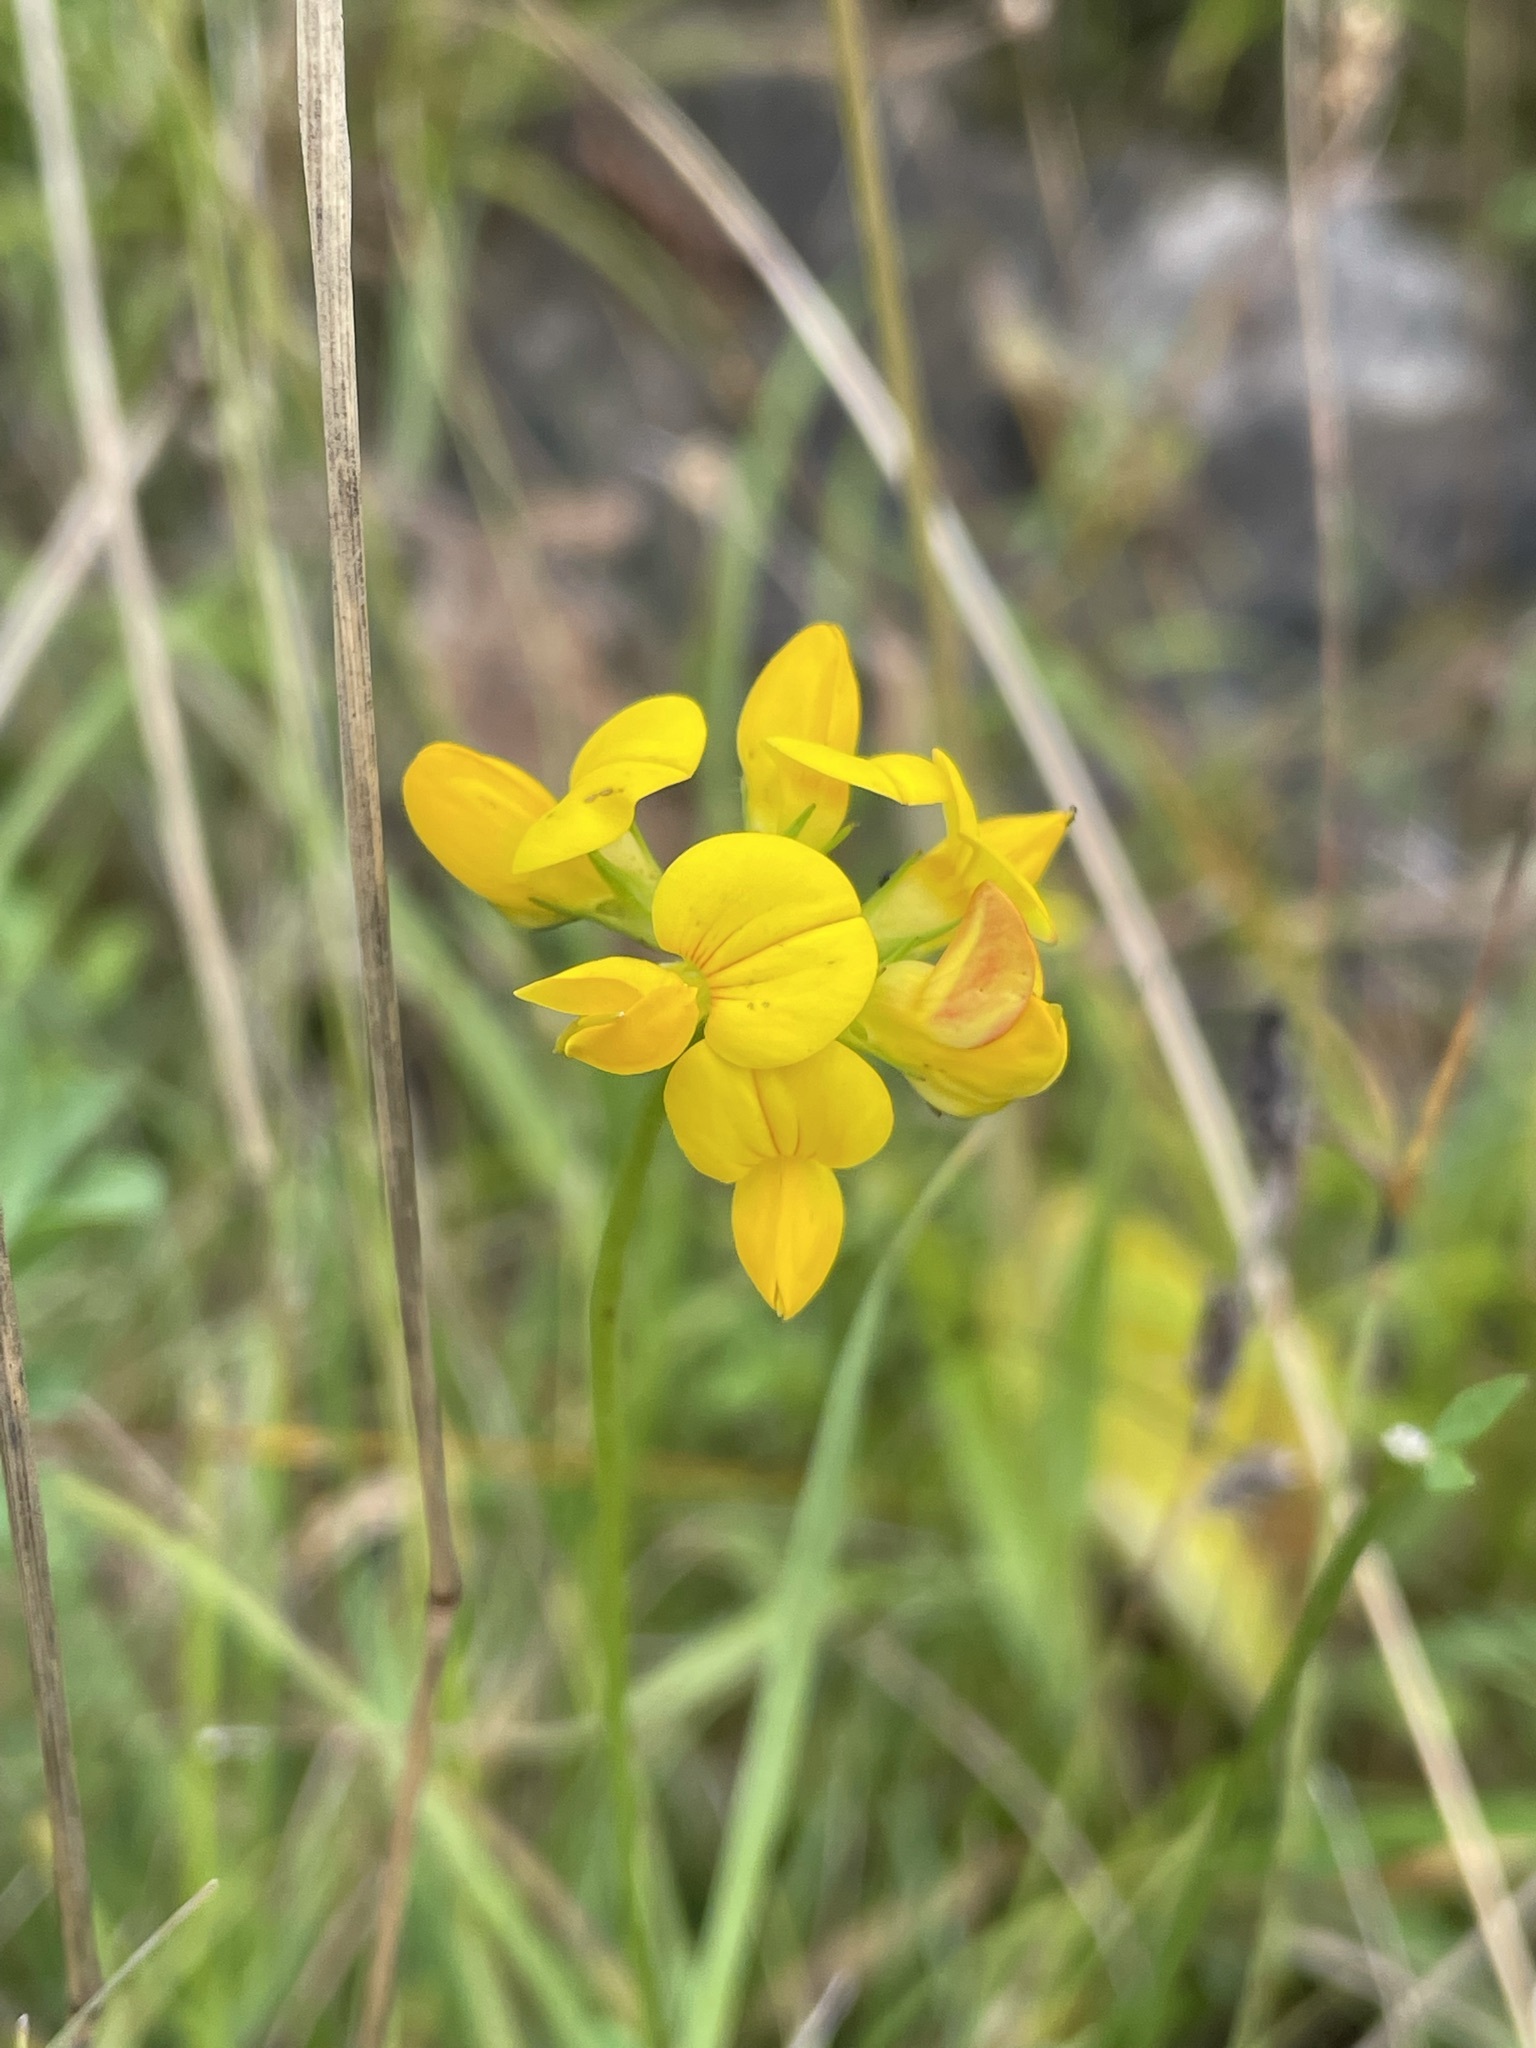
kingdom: Plantae
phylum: Tracheophyta
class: Magnoliopsida
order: Fabales
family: Fabaceae
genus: Lotus
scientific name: Lotus corniculatus
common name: Common bird's-foot-trefoil
